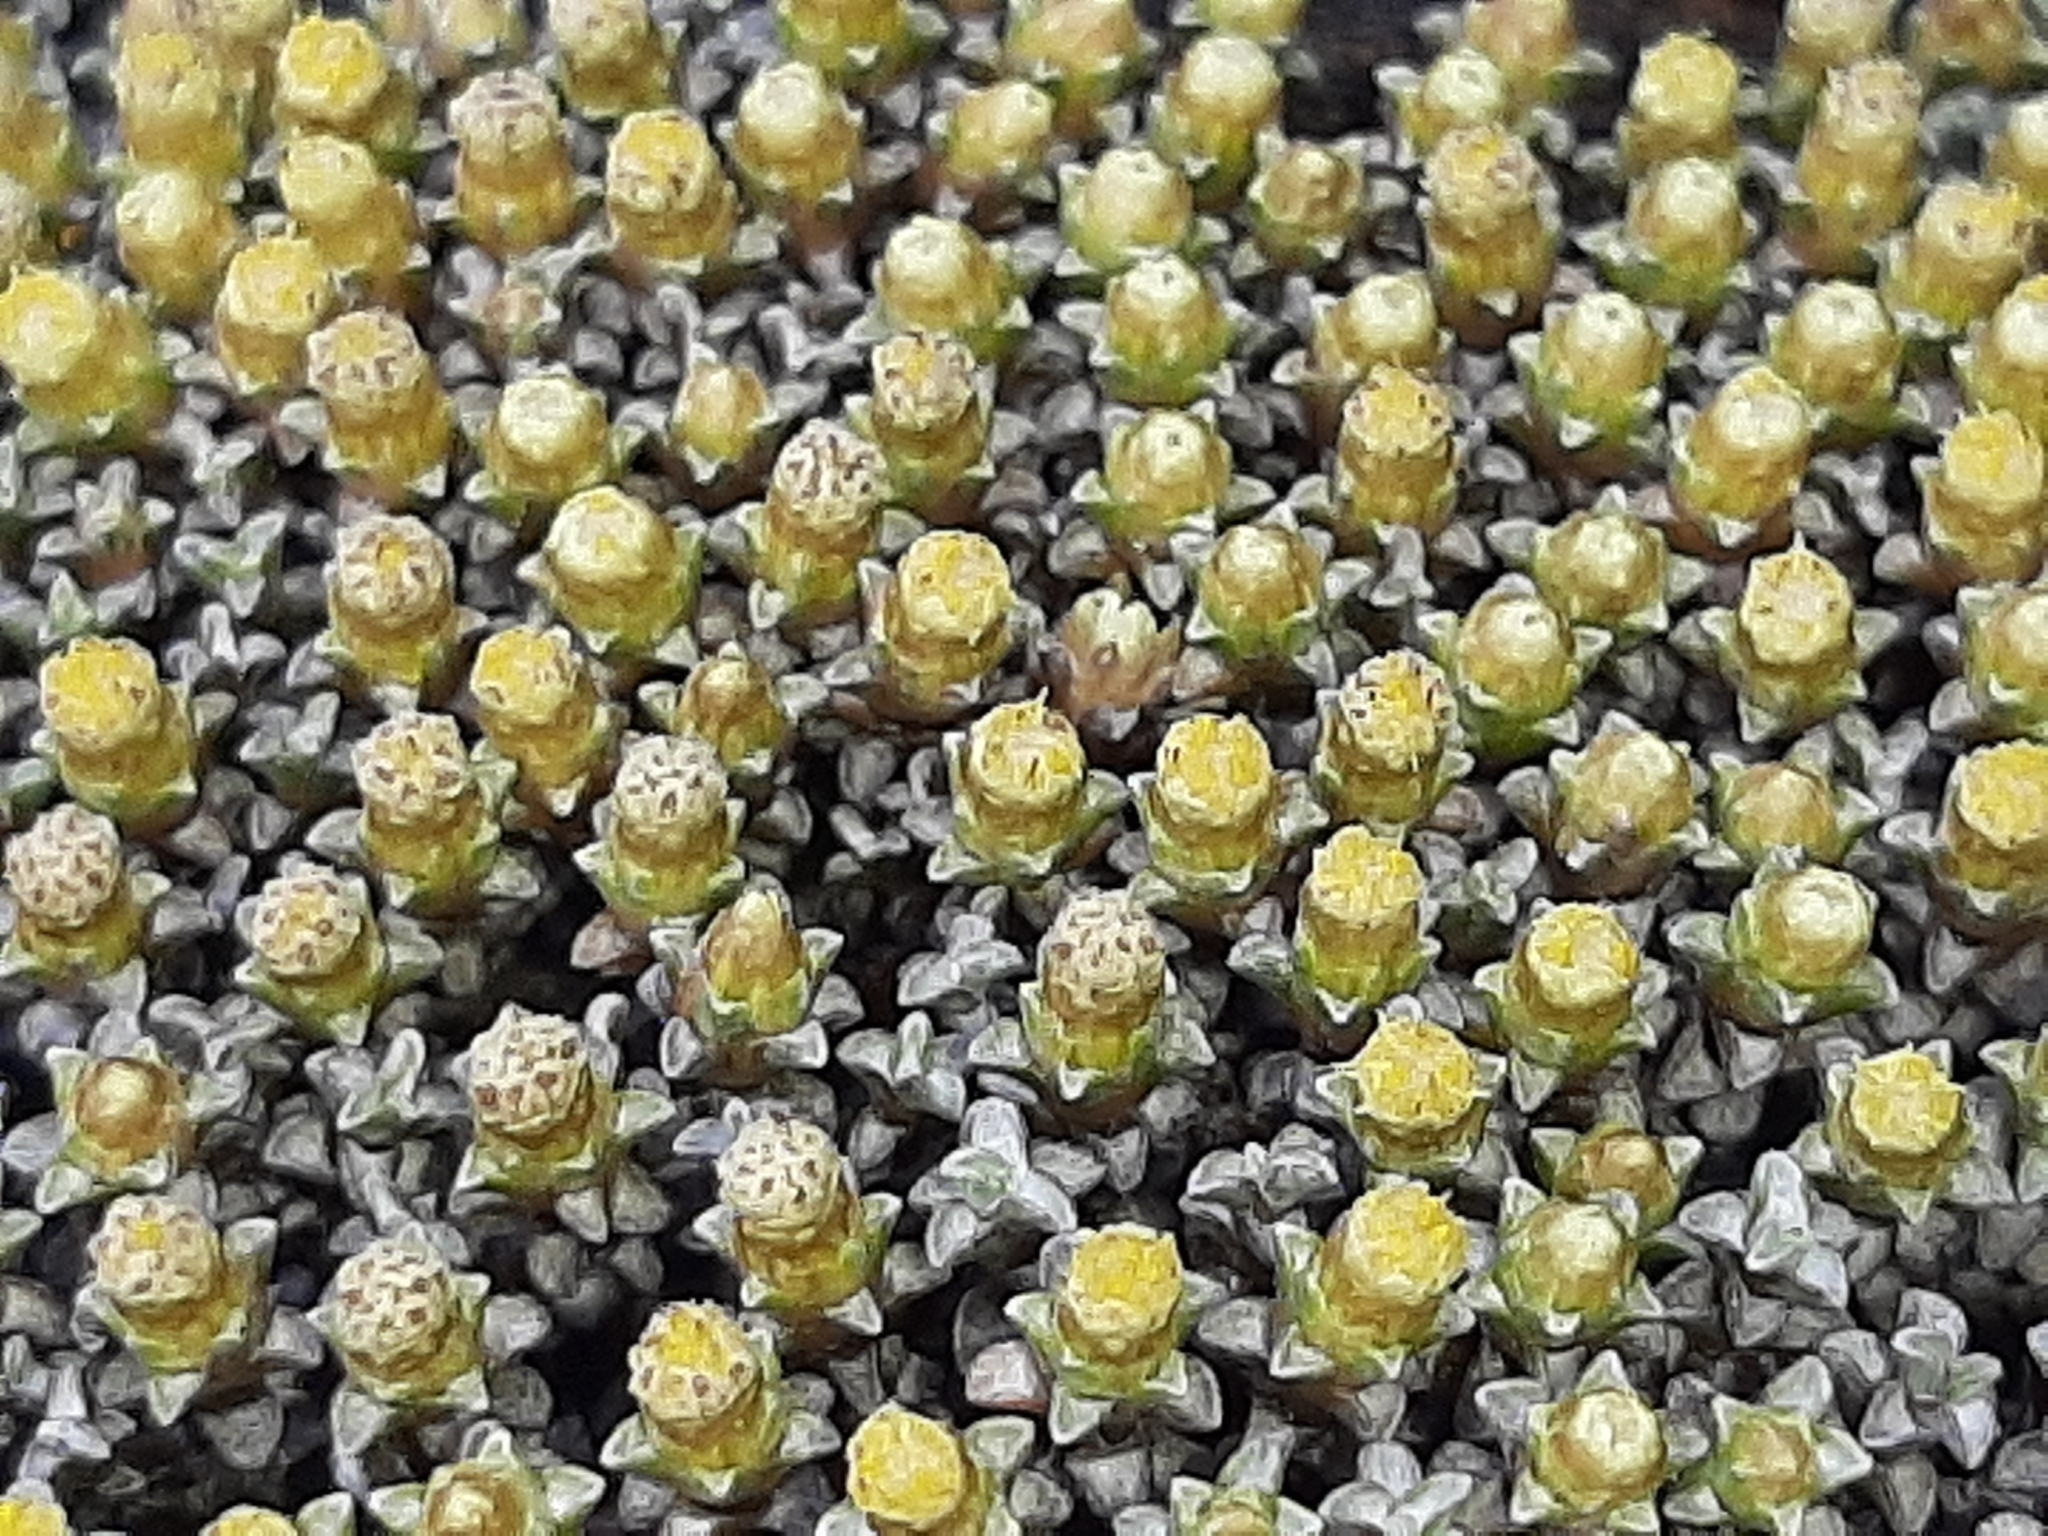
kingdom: Plantae
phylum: Tracheophyta
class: Magnoliopsida
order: Asterales
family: Asteraceae
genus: Raoulia
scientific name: Raoulia hookeri
